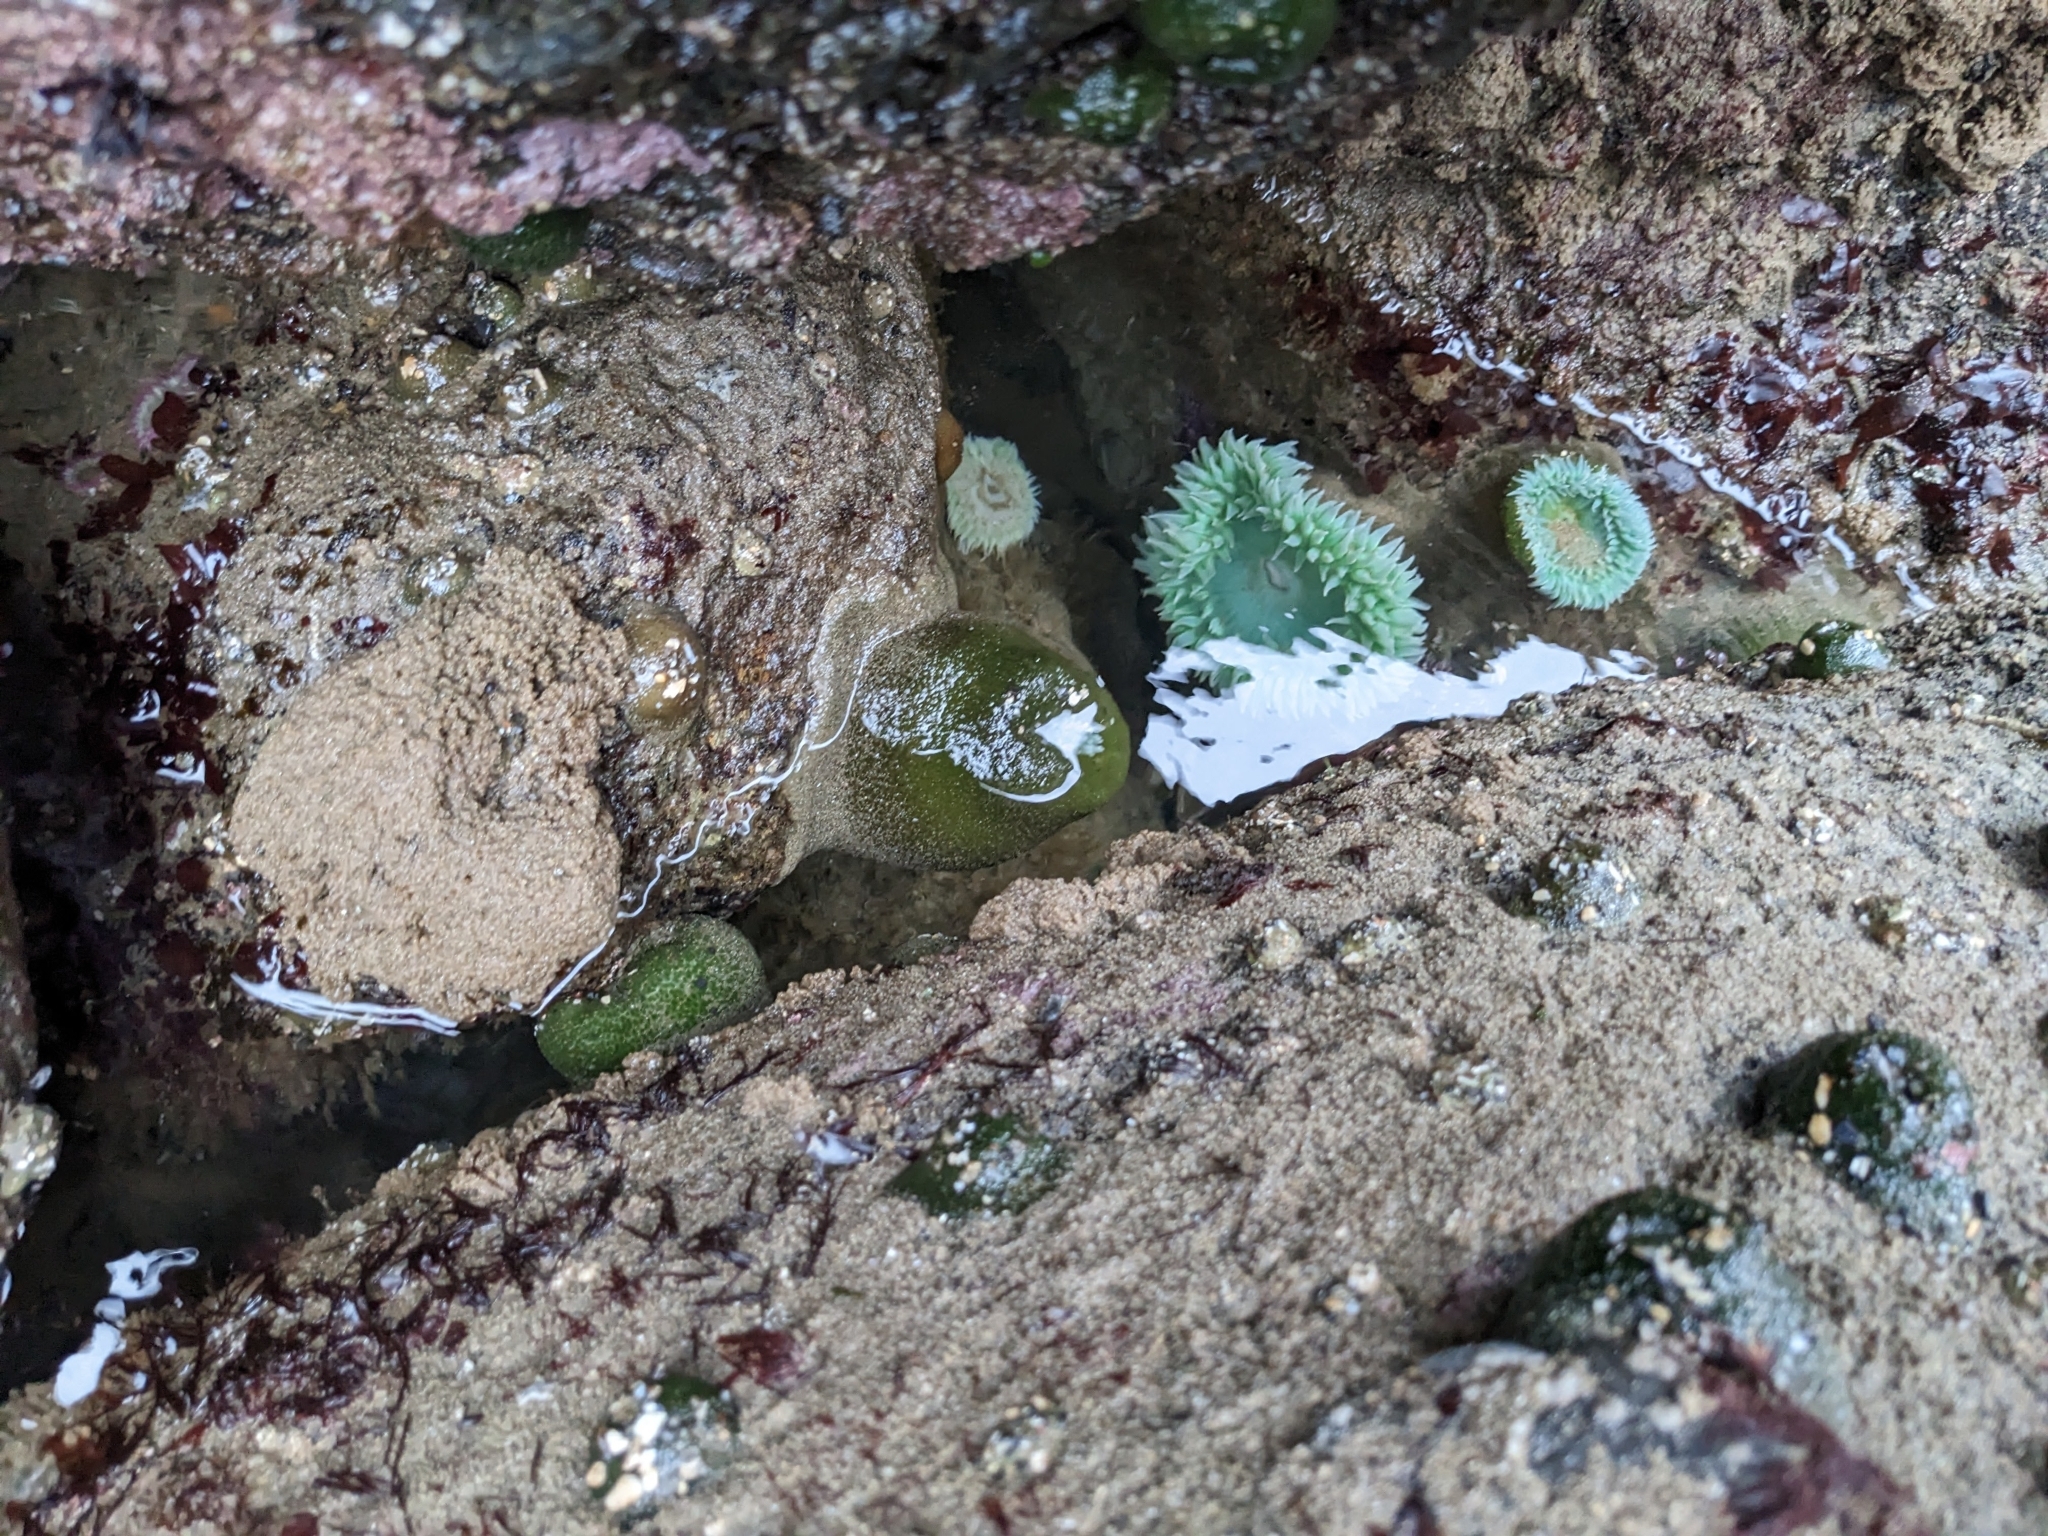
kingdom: Animalia
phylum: Cnidaria
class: Anthozoa
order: Actiniaria
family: Actiniidae
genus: Anthopleura
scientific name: Anthopleura xanthogrammica
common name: Giant green anemone
